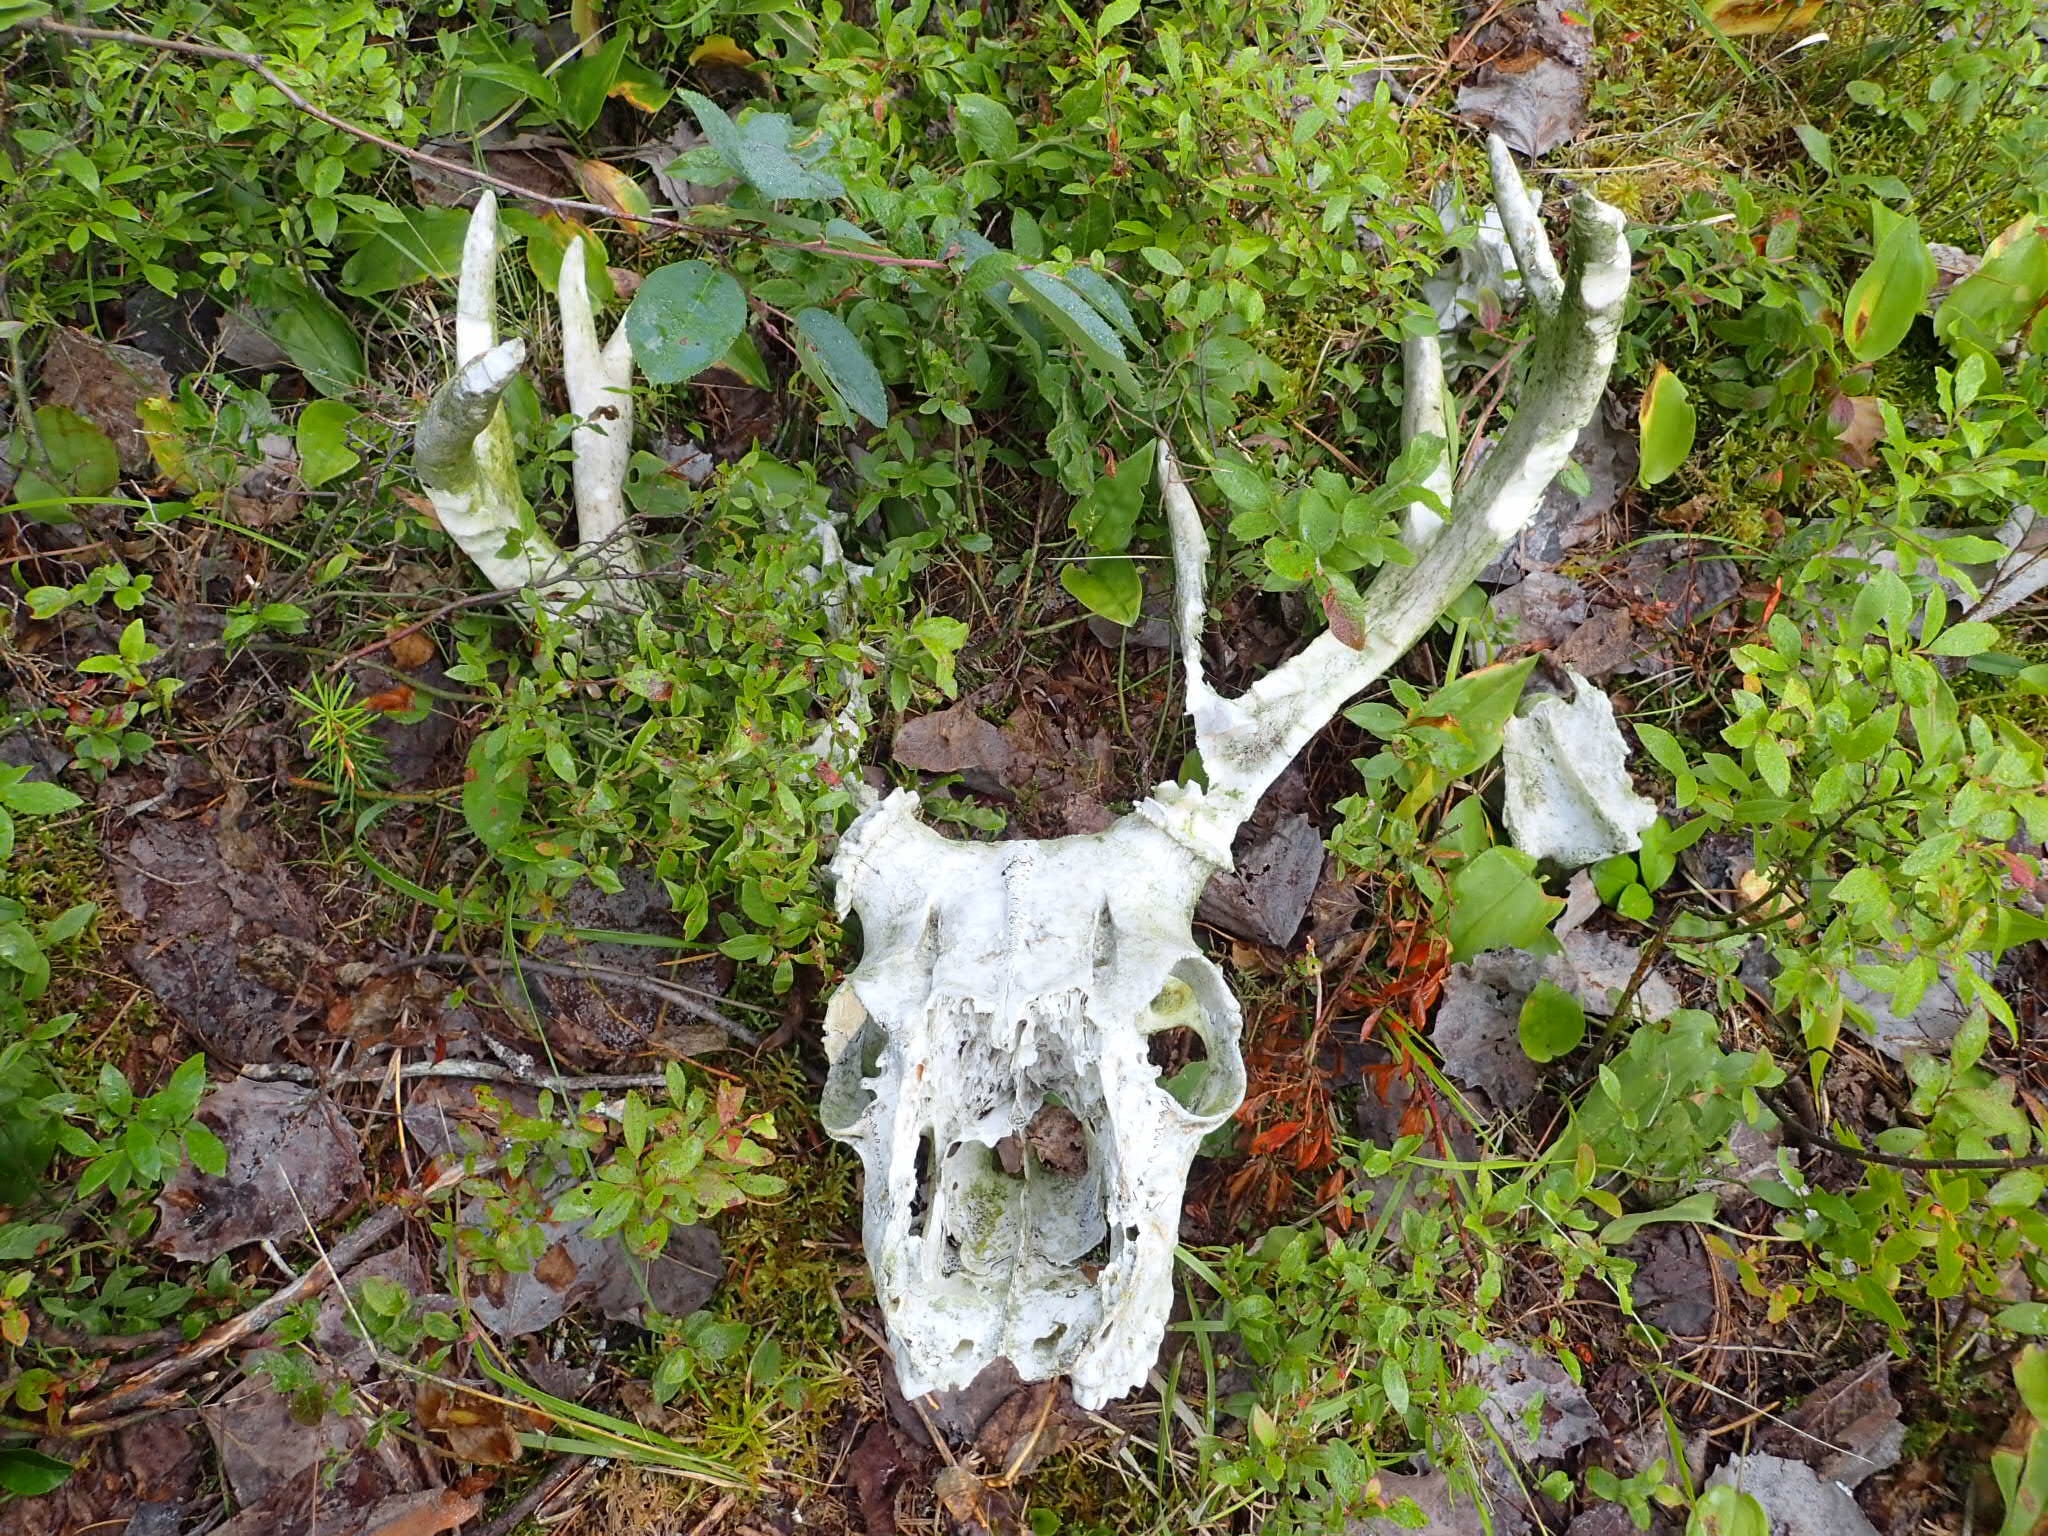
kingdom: Animalia
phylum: Chordata
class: Mammalia
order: Artiodactyla
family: Cervidae
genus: Odocoileus
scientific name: Odocoileus virginianus
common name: White-tailed deer
